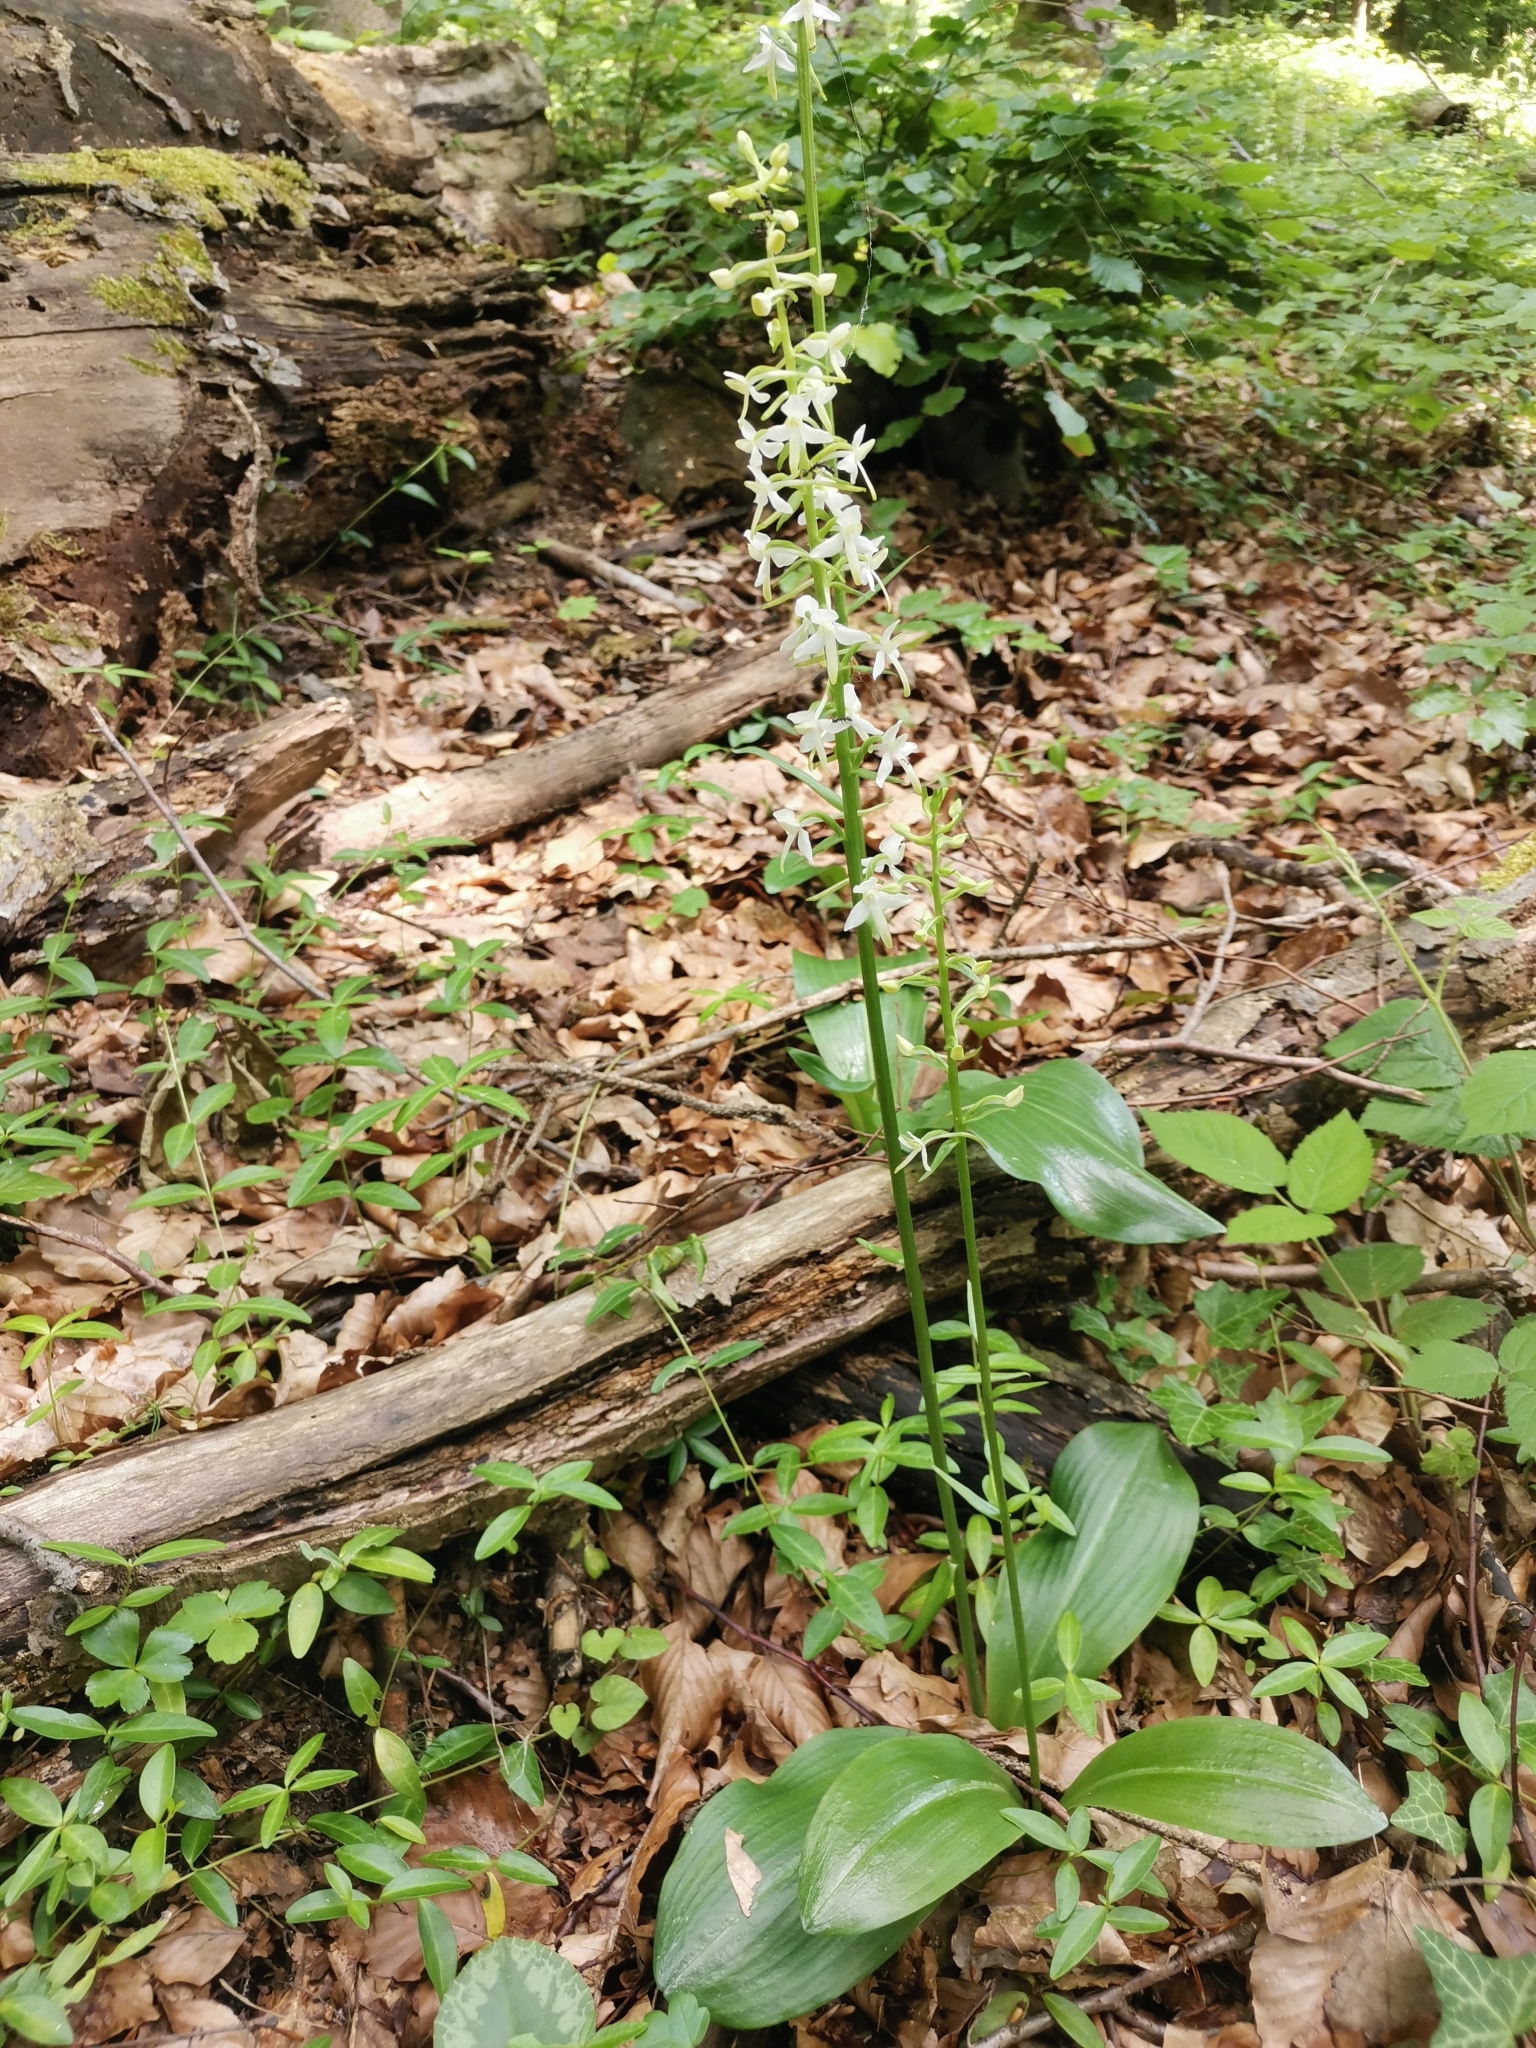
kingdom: Plantae
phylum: Tracheophyta
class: Liliopsida
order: Asparagales
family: Orchidaceae
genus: Platanthera
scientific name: Platanthera bifolia
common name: Lesser butterfly-orchid
